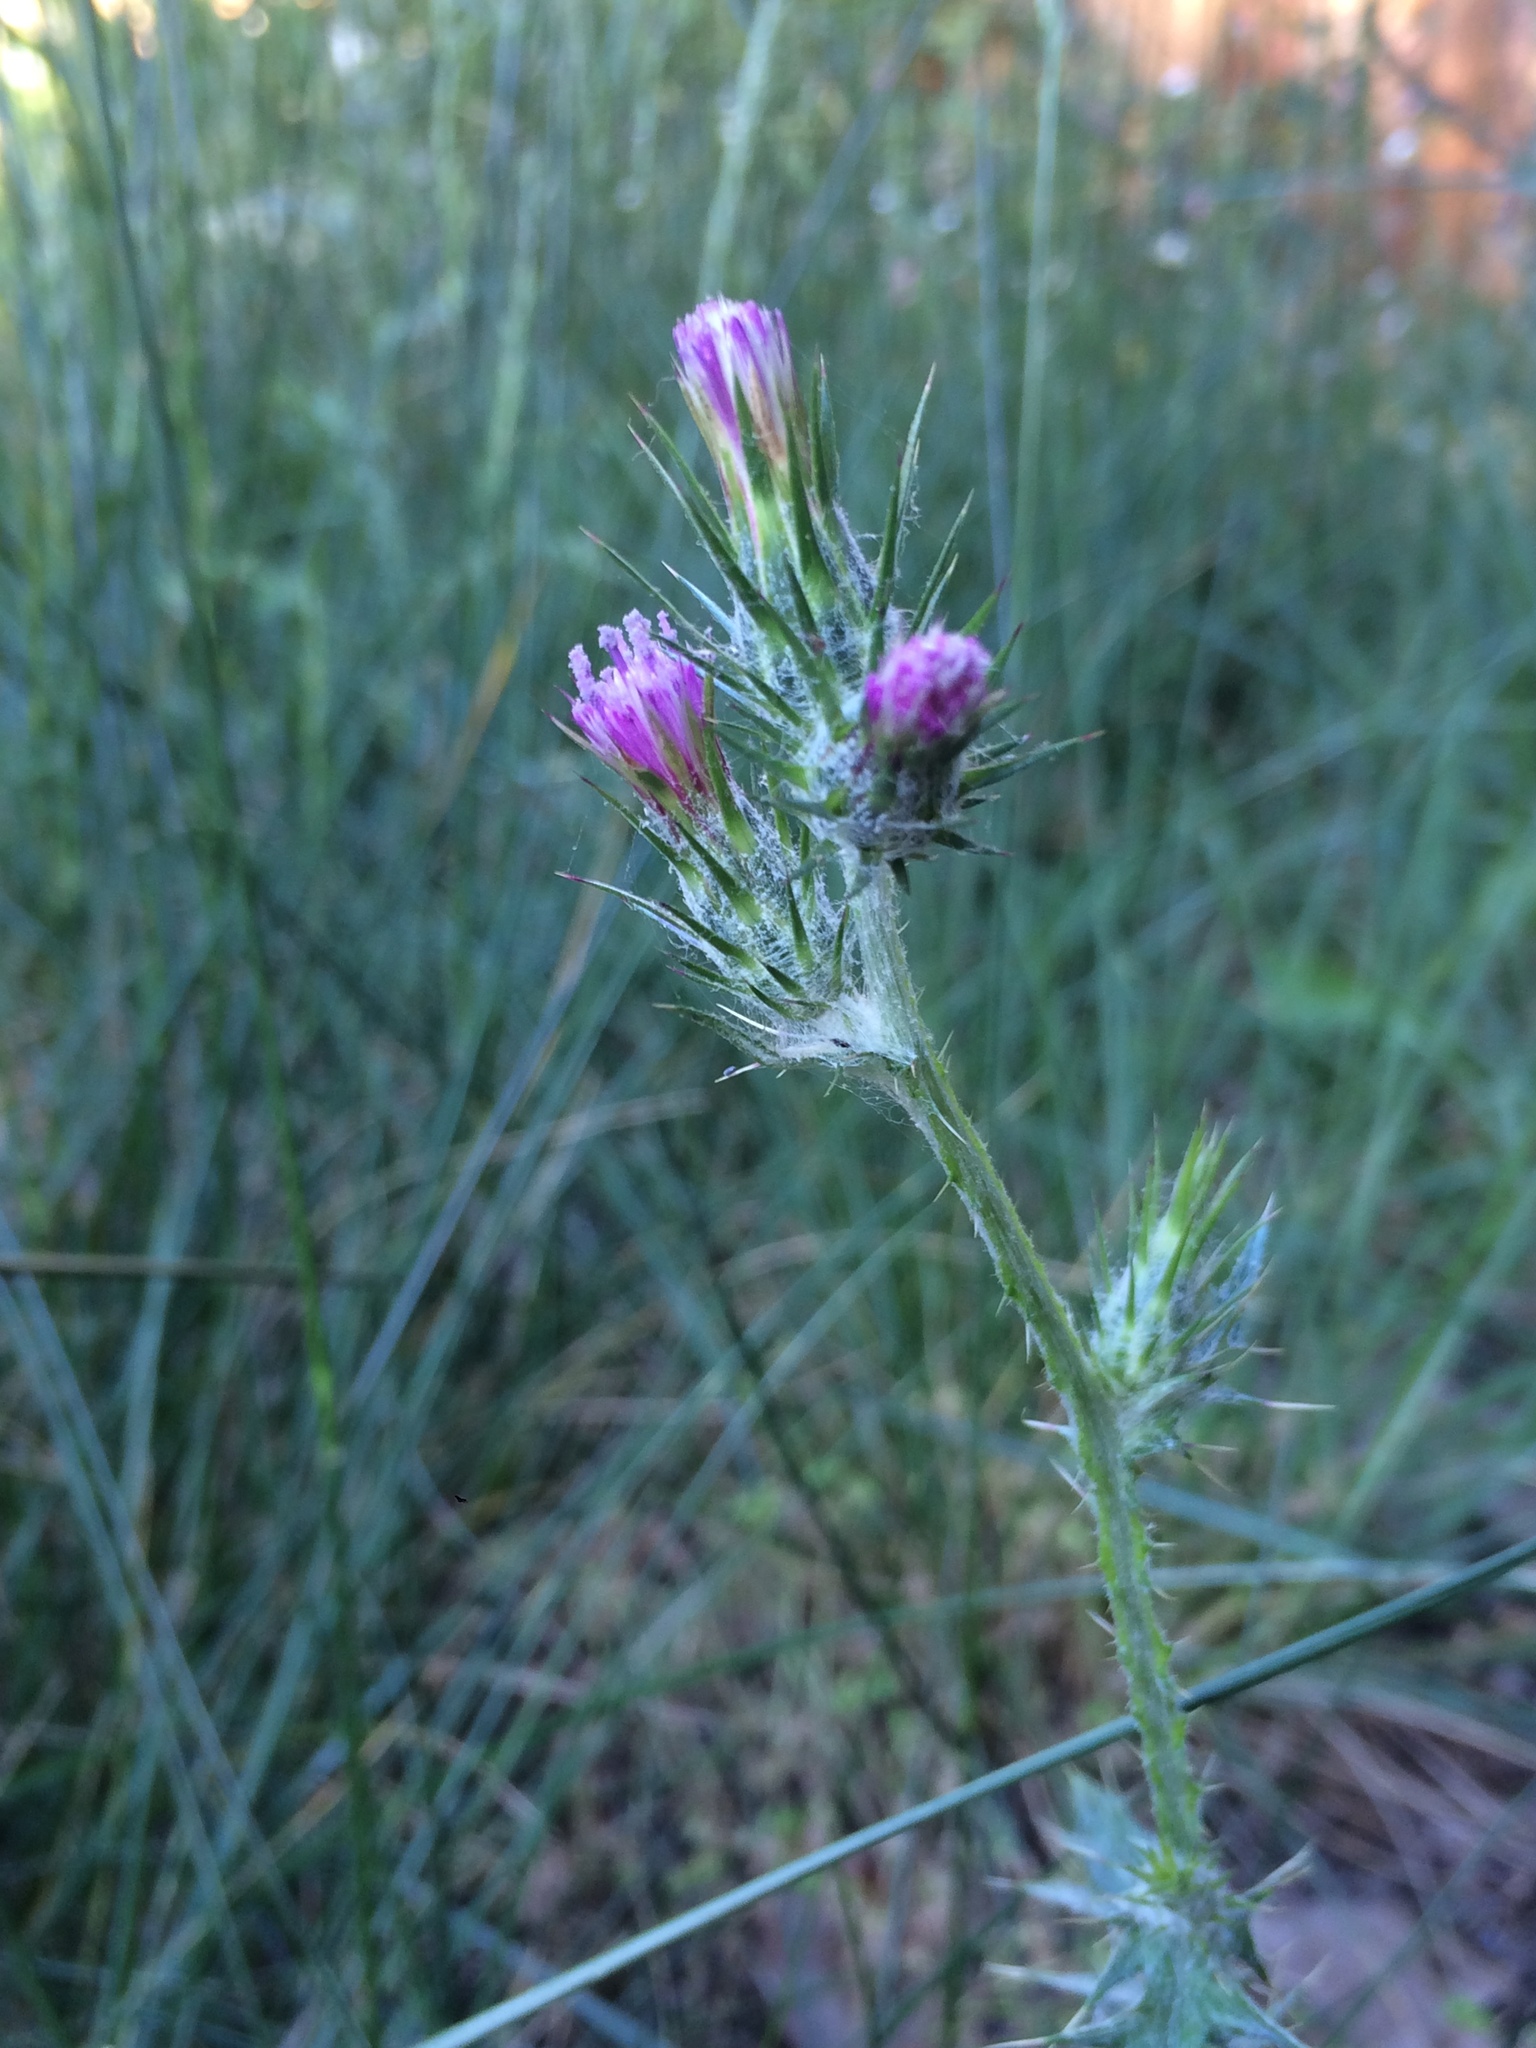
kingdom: Plantae
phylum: Tracheophyta
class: Magnoliopsida
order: Asterales
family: Asteraceae
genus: Carduus
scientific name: Carduus pycnocephalus
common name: Plymouth thistle
